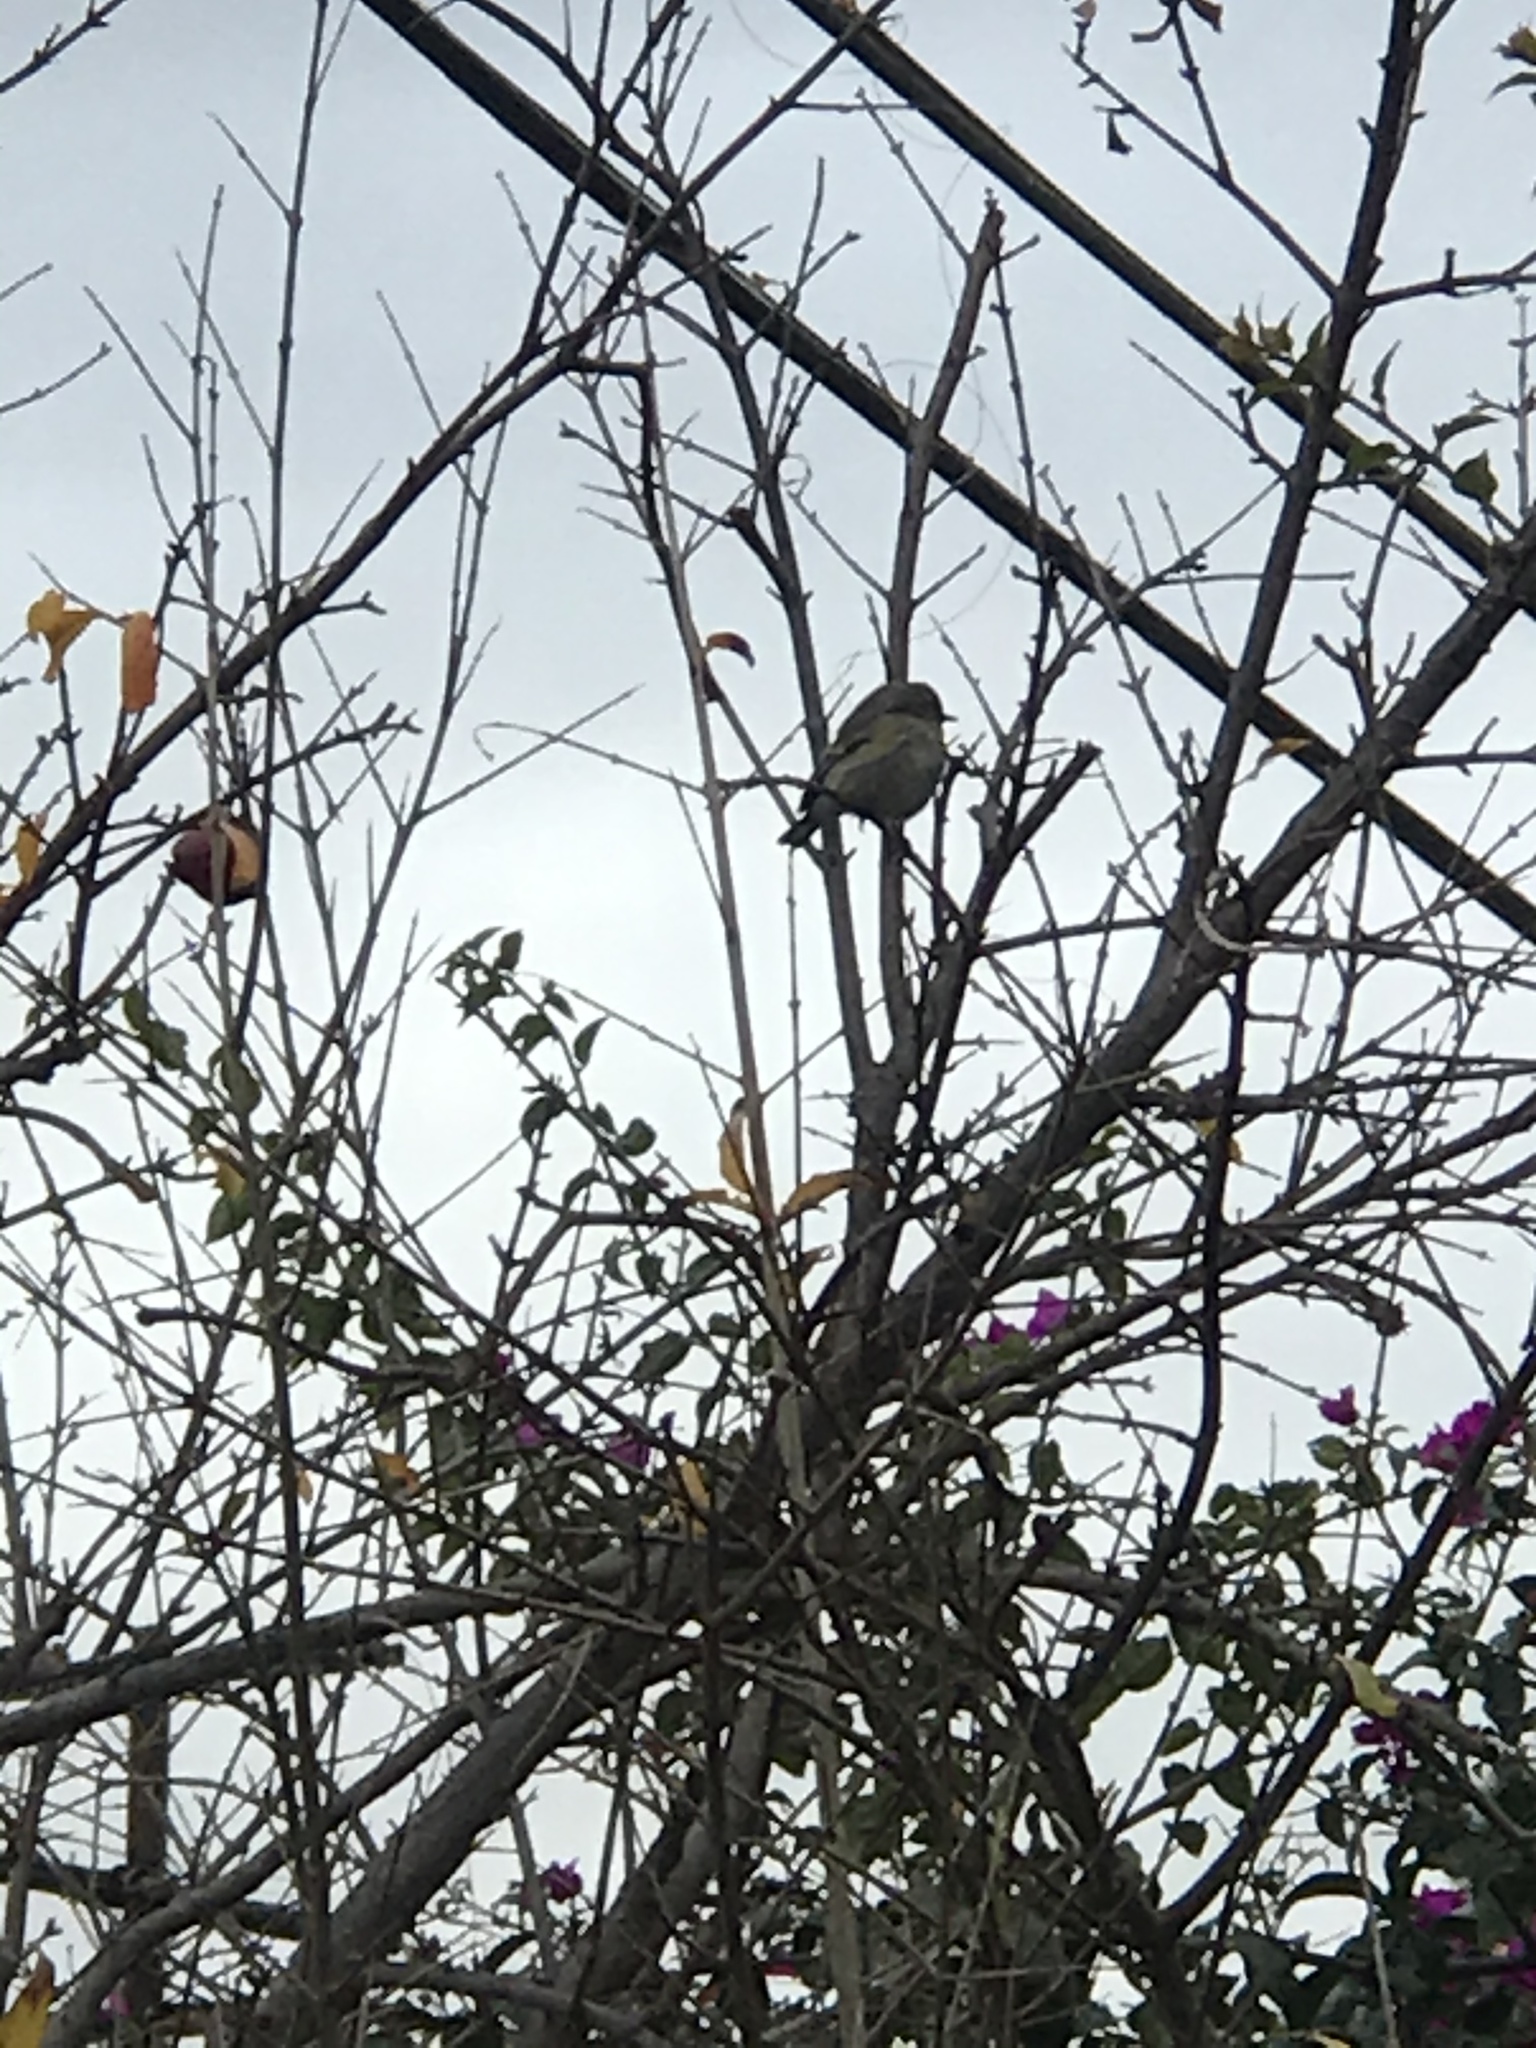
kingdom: Animalia
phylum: Chordata
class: Aves
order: Passeriformes
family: Parulidae
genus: Setophaga
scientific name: Setophaga coronata
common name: Myrtle warbler
